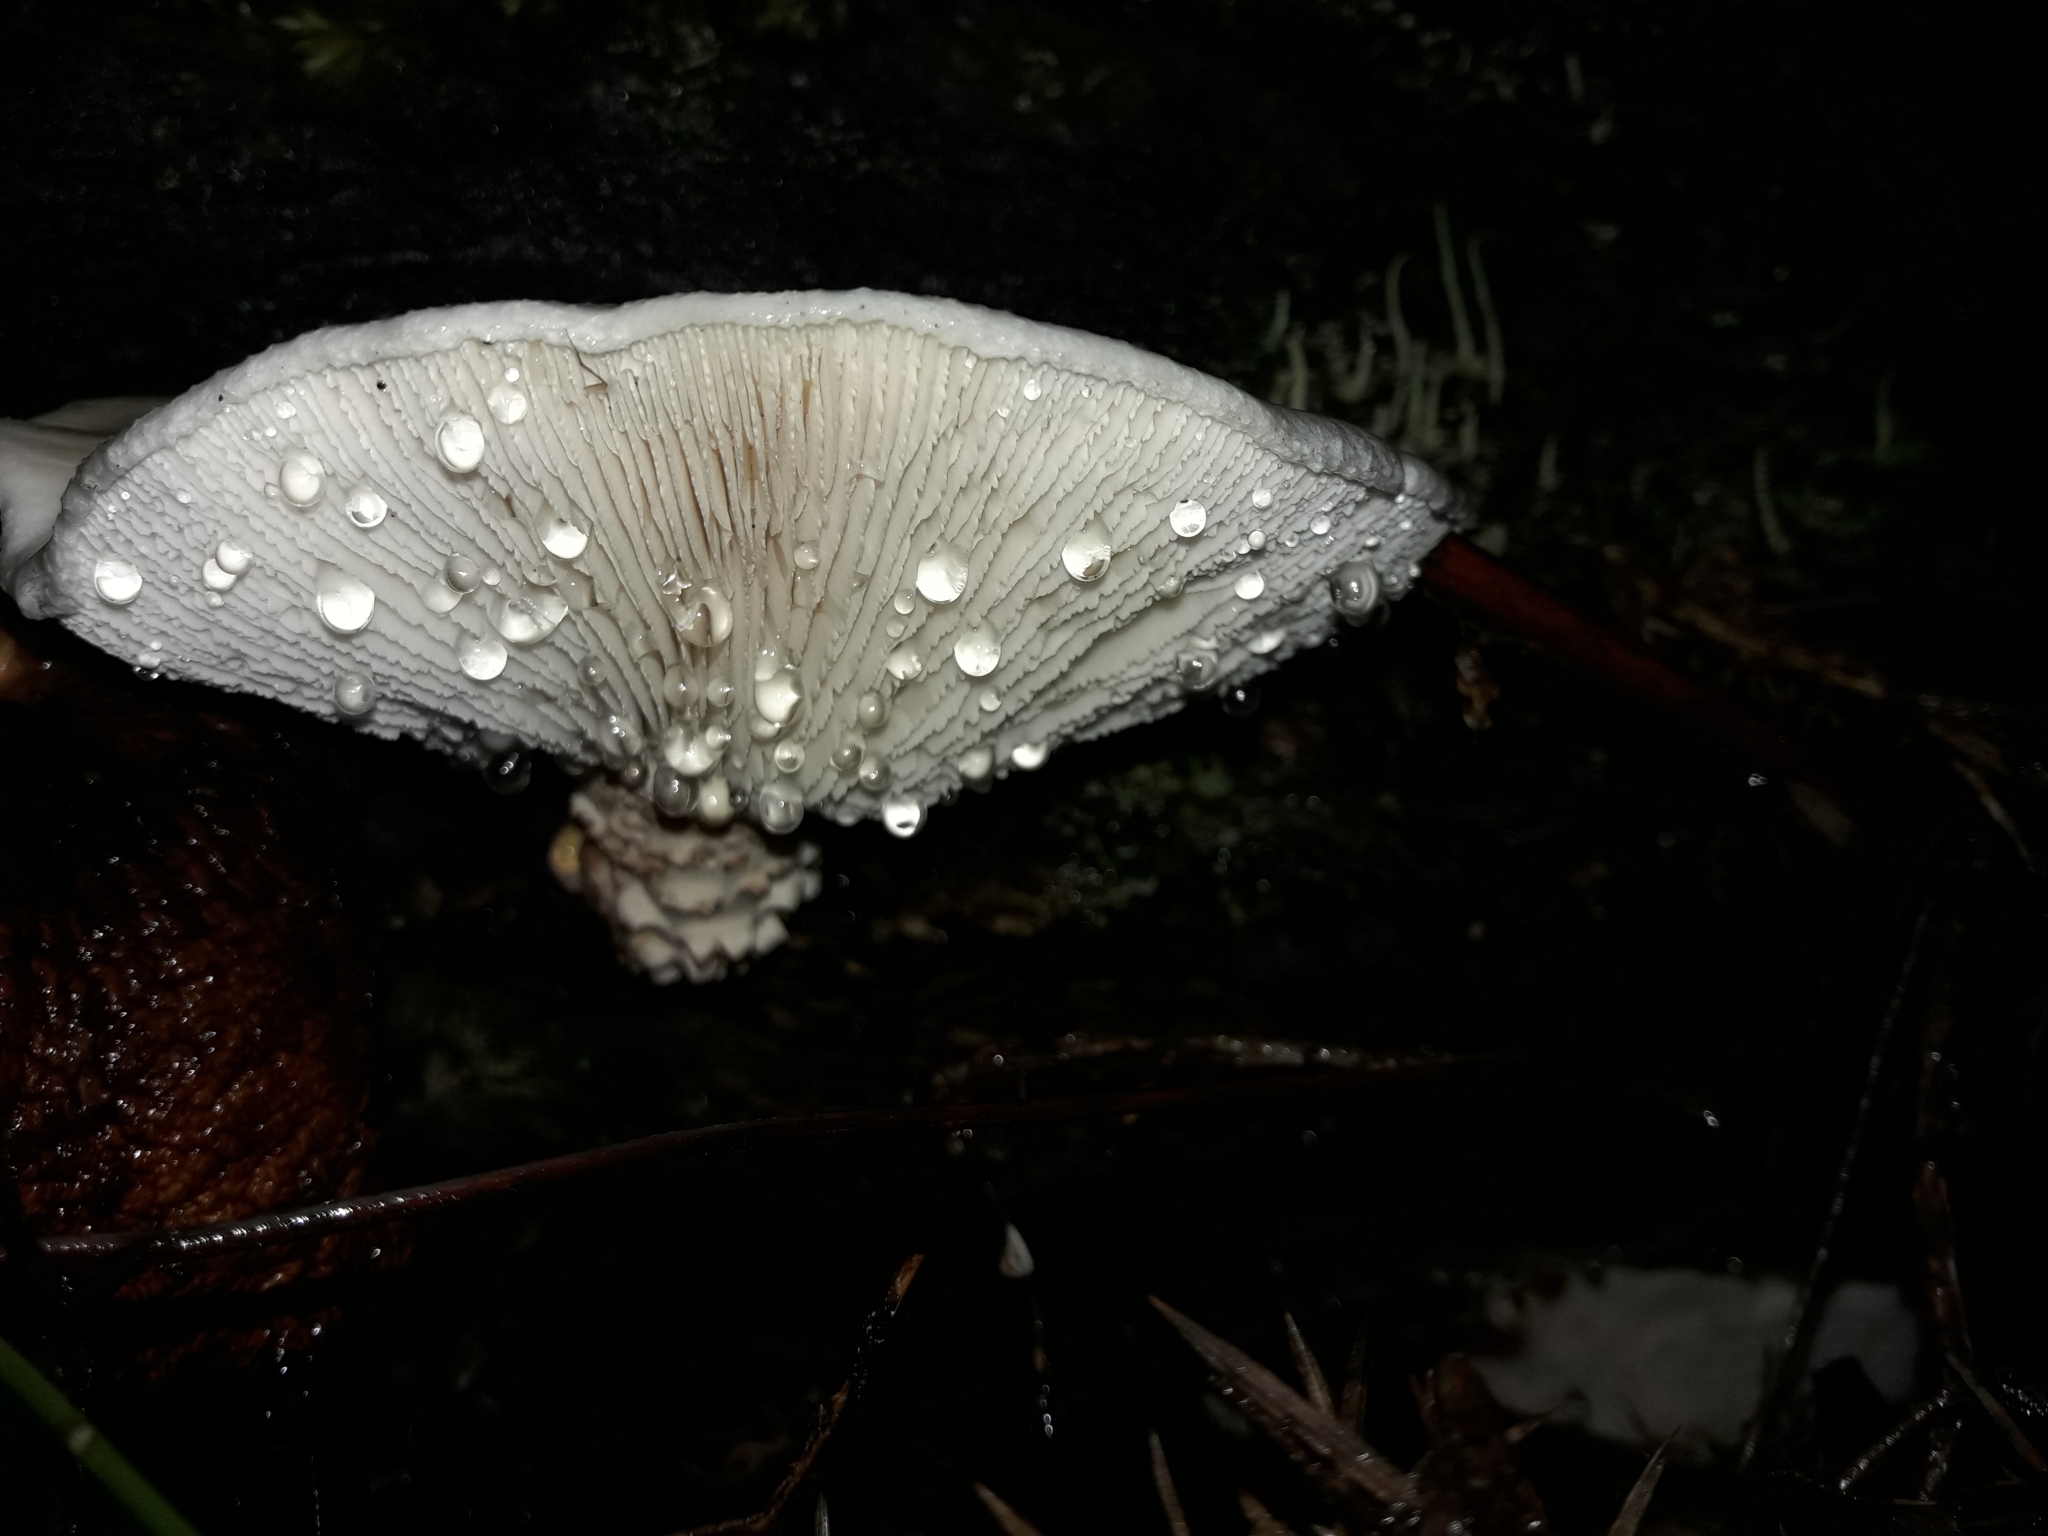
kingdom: Fungi
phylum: Basidiomycota
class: Agaricomycetes
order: Gloeophyllales
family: Gloeophyllaceae
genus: Neolentinus
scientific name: Neolentinus lepideus
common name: Scaly sawgill
